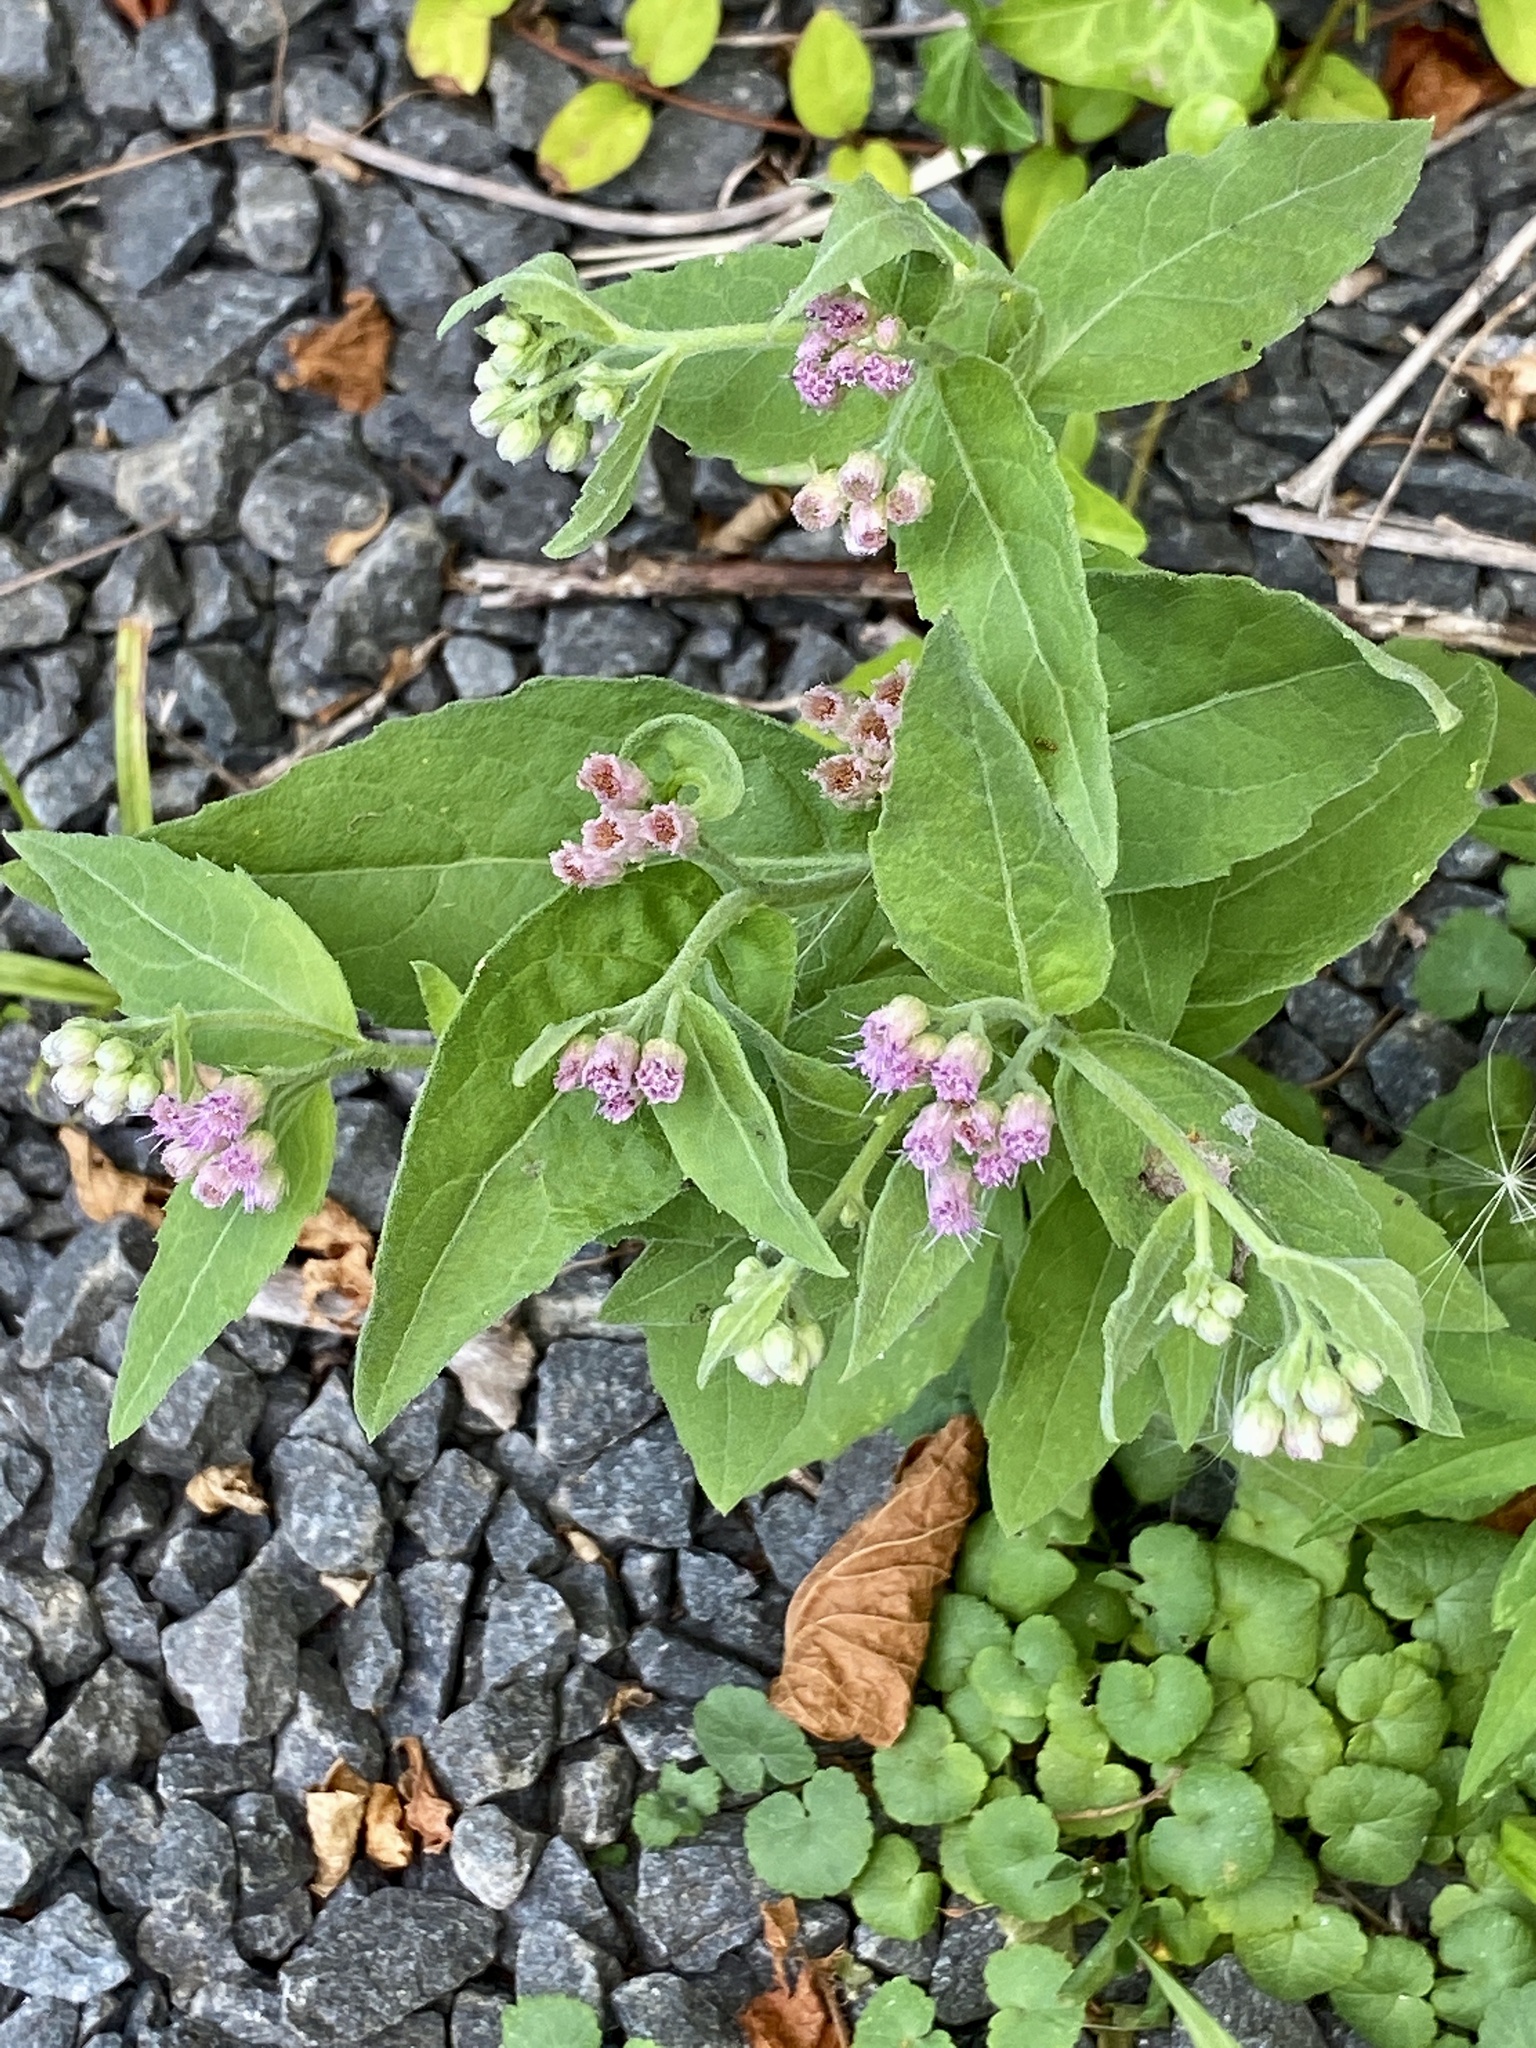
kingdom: Plantae
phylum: Tracheophyta
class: Magnoliopsida
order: Asterales
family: Asteraceae
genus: Pluchea
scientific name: Pluchea odorata
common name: Saltmarsh fleabane
